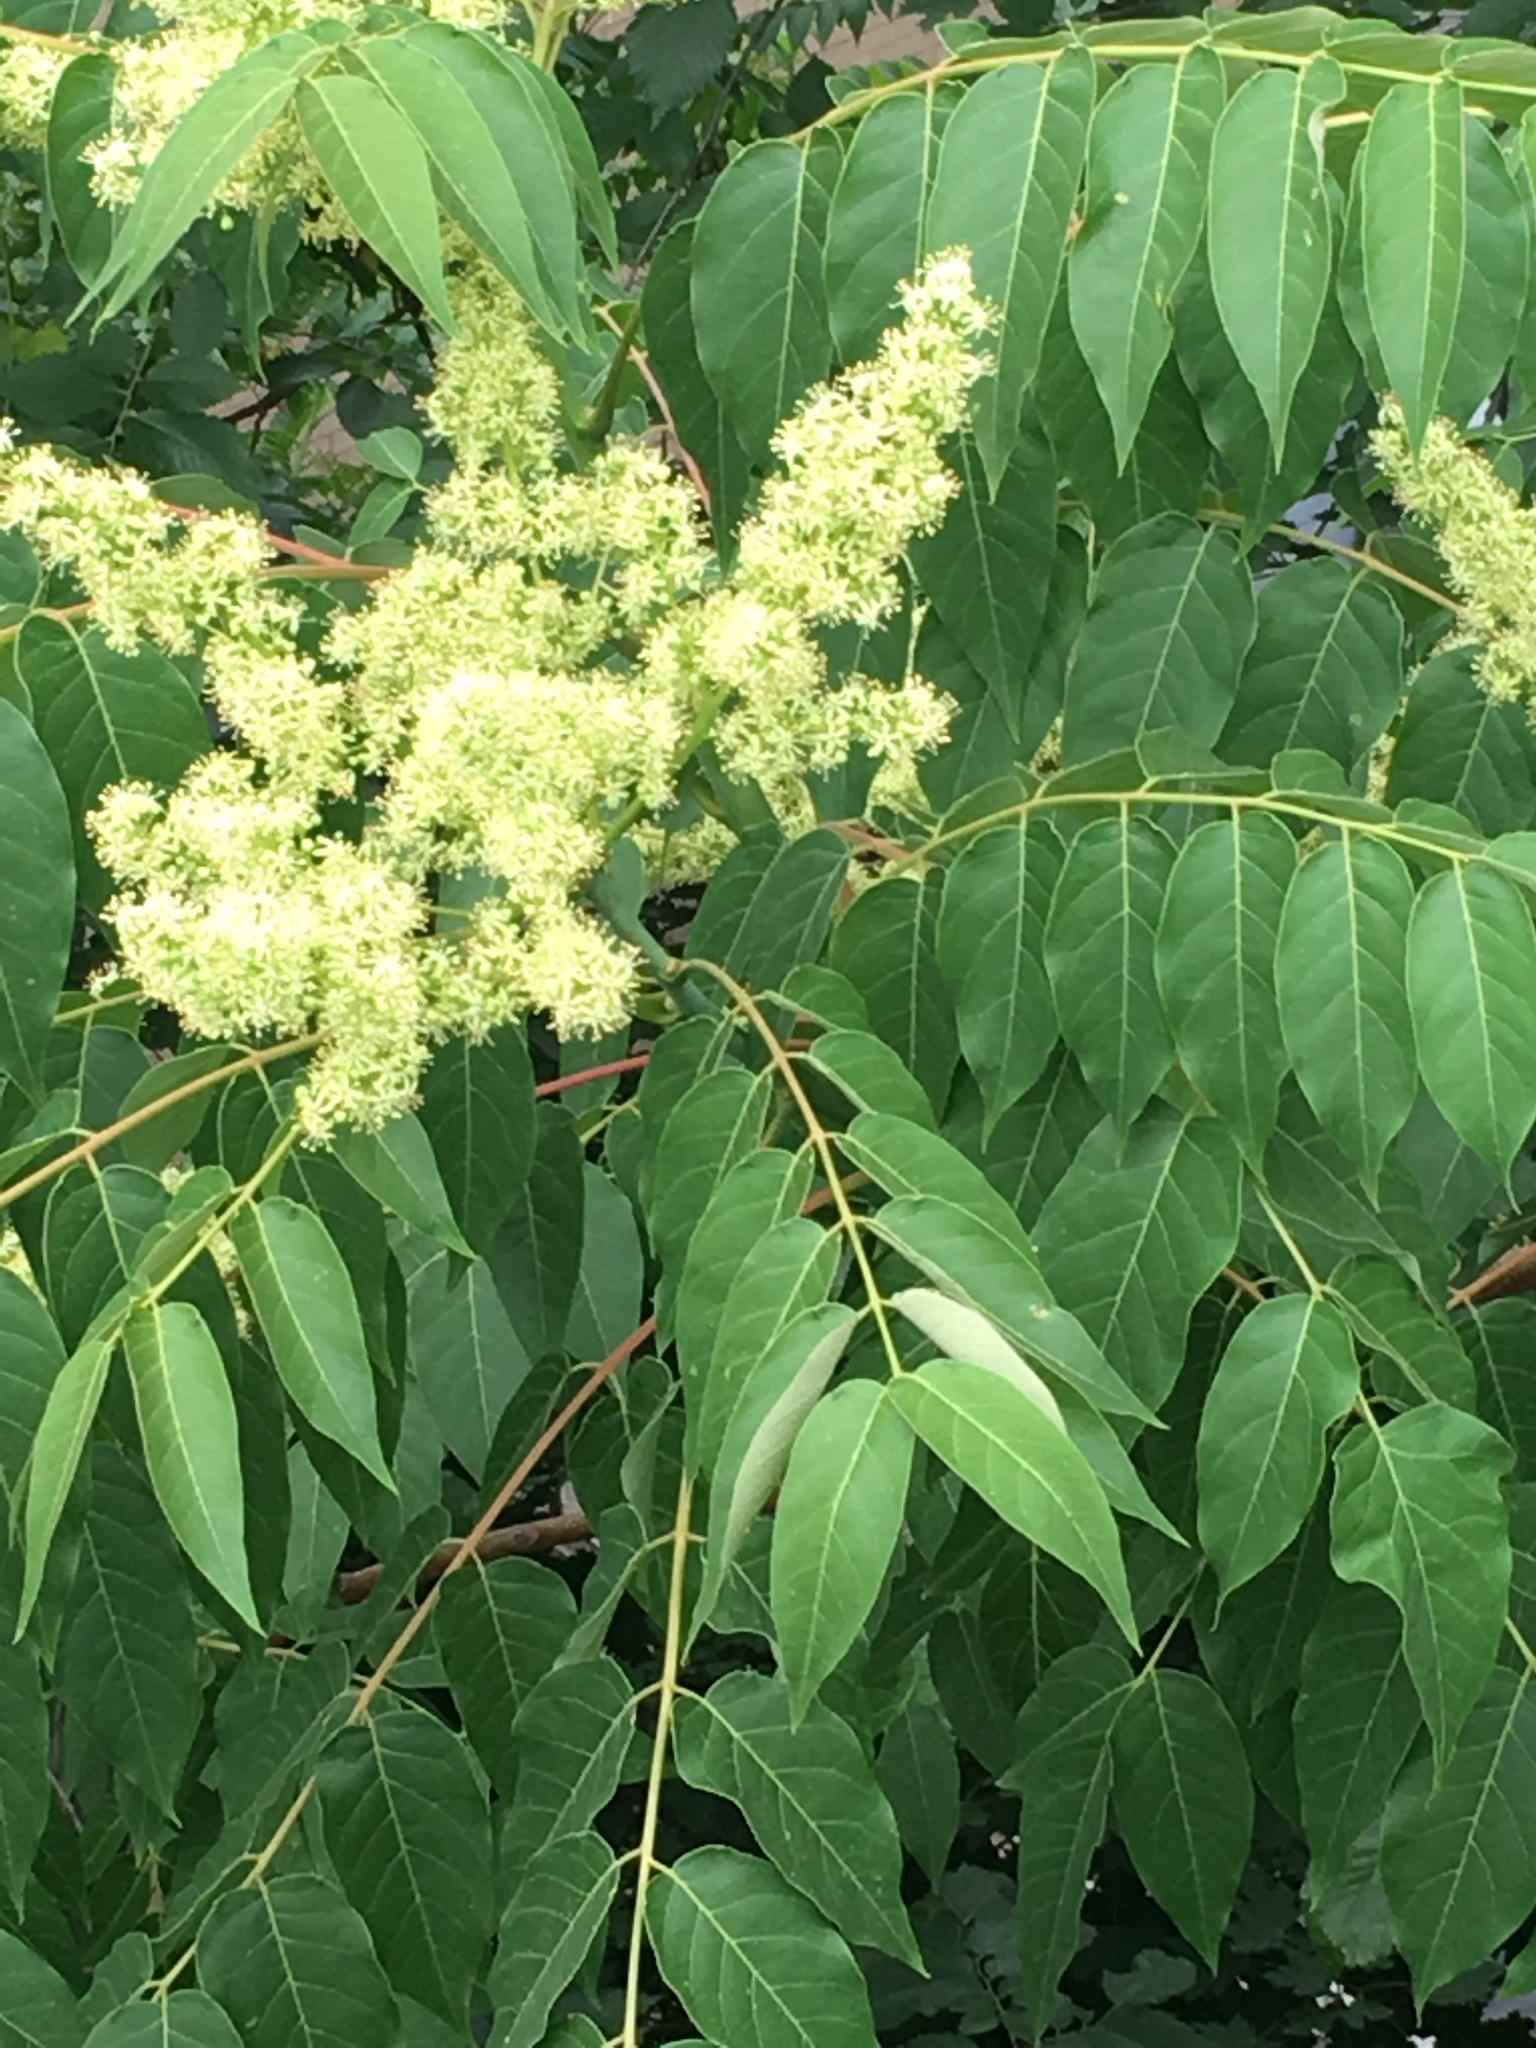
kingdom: Plantae
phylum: Tracheophyta
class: Magnoliopsida
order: Sapindales
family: Simaroubaceae
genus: Ailanthus
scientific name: Ailanthus altissima
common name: Tree-of-heaven
